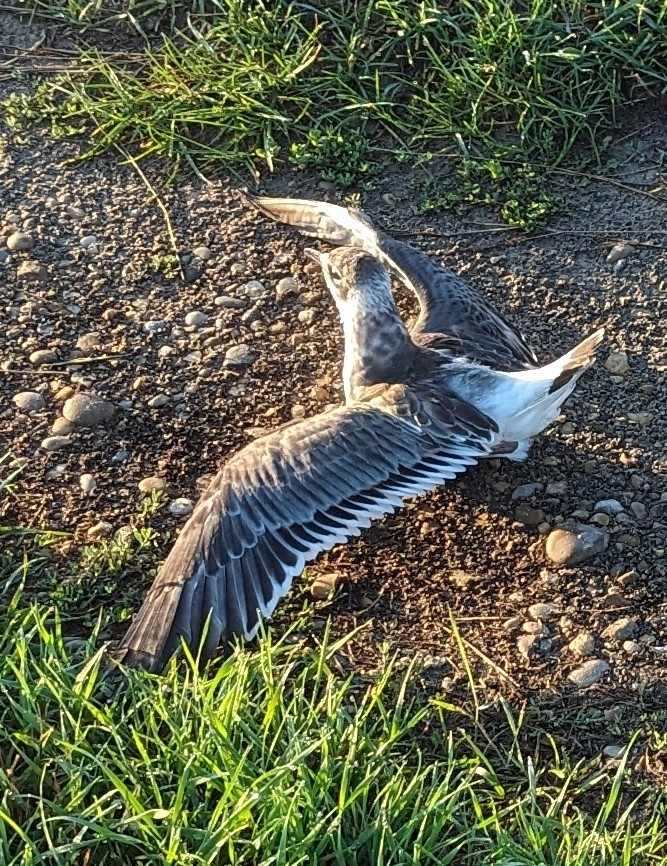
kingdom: Animalia
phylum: Chordata
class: Aves
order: Charadriiformes
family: Laridae
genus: Leucophaeus
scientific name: Leucophaeus pipixcan
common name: Franklin's gull
